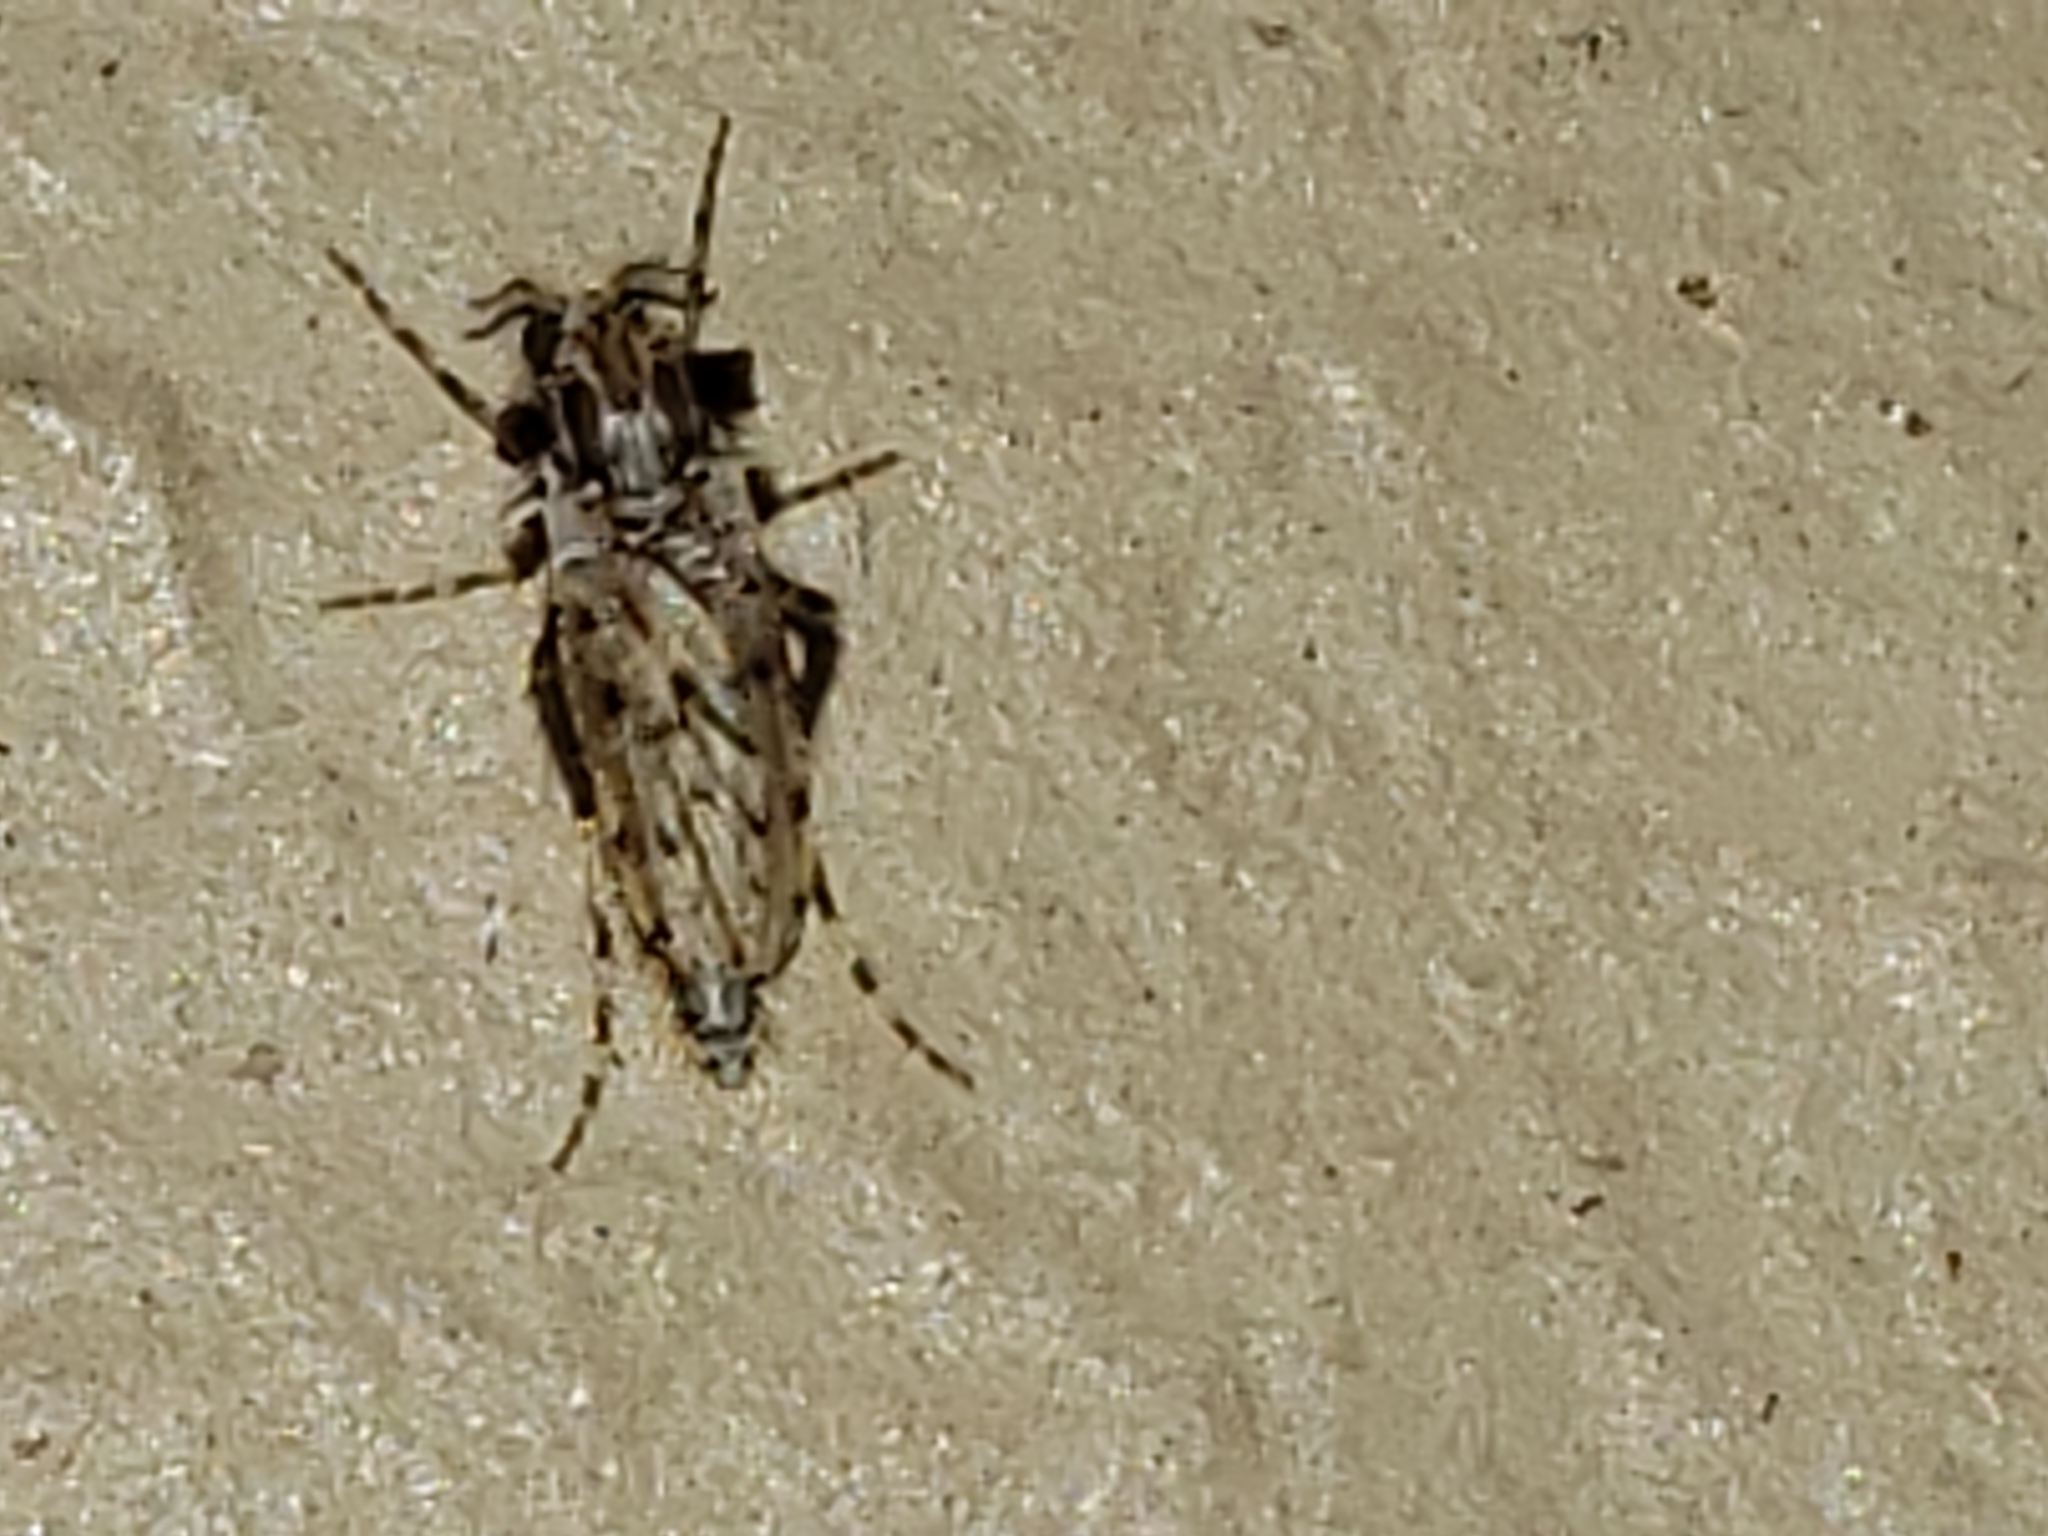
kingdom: Animalia
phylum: Arthropoda
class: Insecta
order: Diptera
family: Chaoboridae
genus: Chaoborus
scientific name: Chaoborus punctipennis
